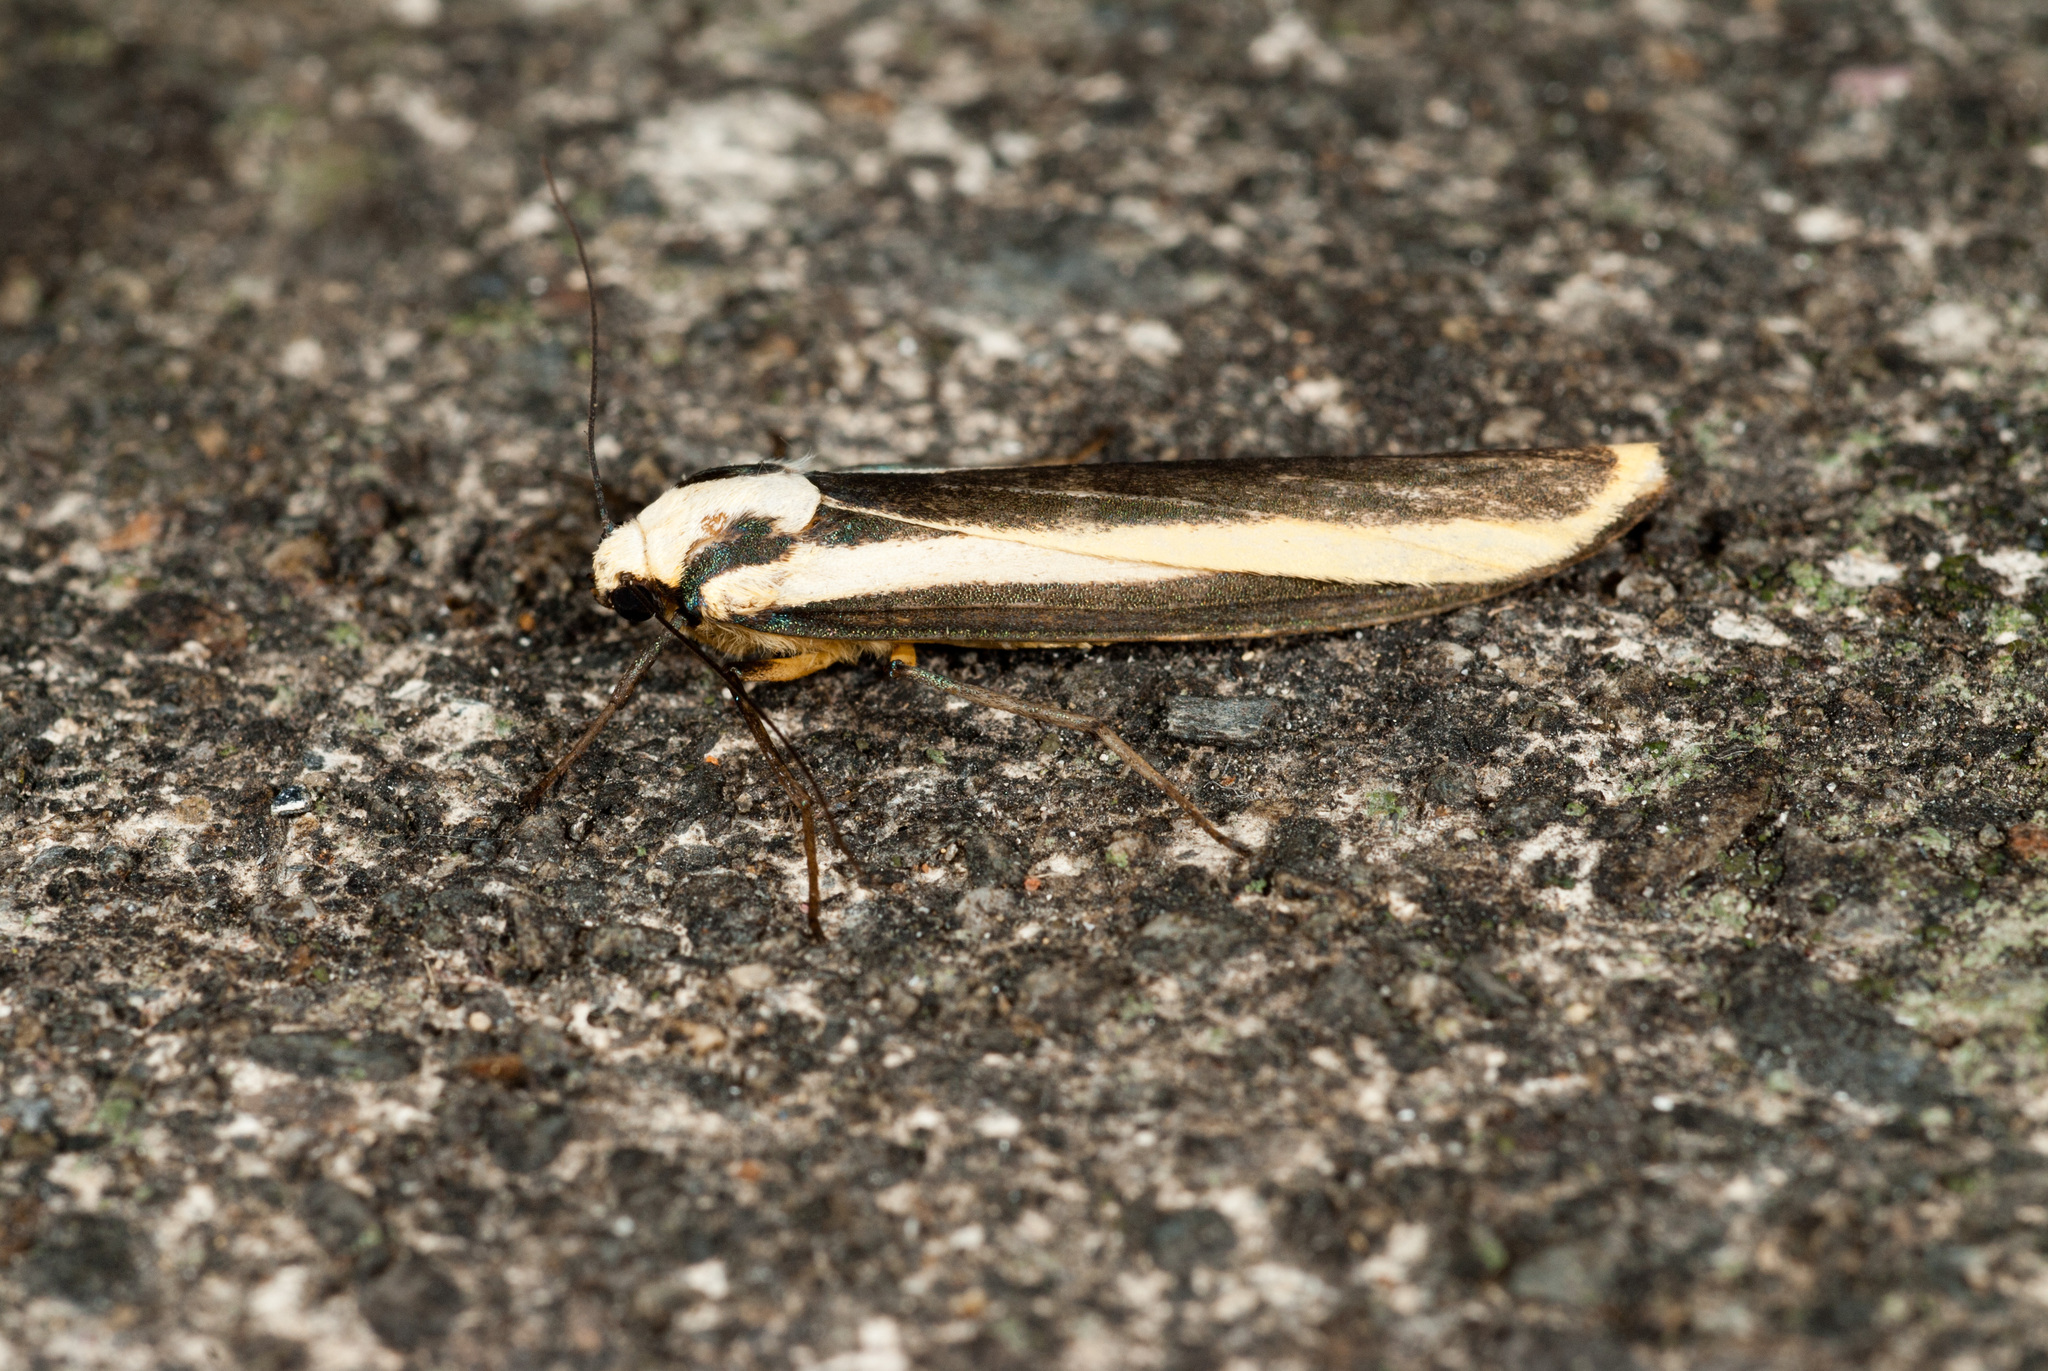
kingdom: Animalia
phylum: Arthropoda
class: Insecta
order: Lepidoptera
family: Erebidae
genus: Chrysorabdia
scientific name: Chrysorabdia vilemani
